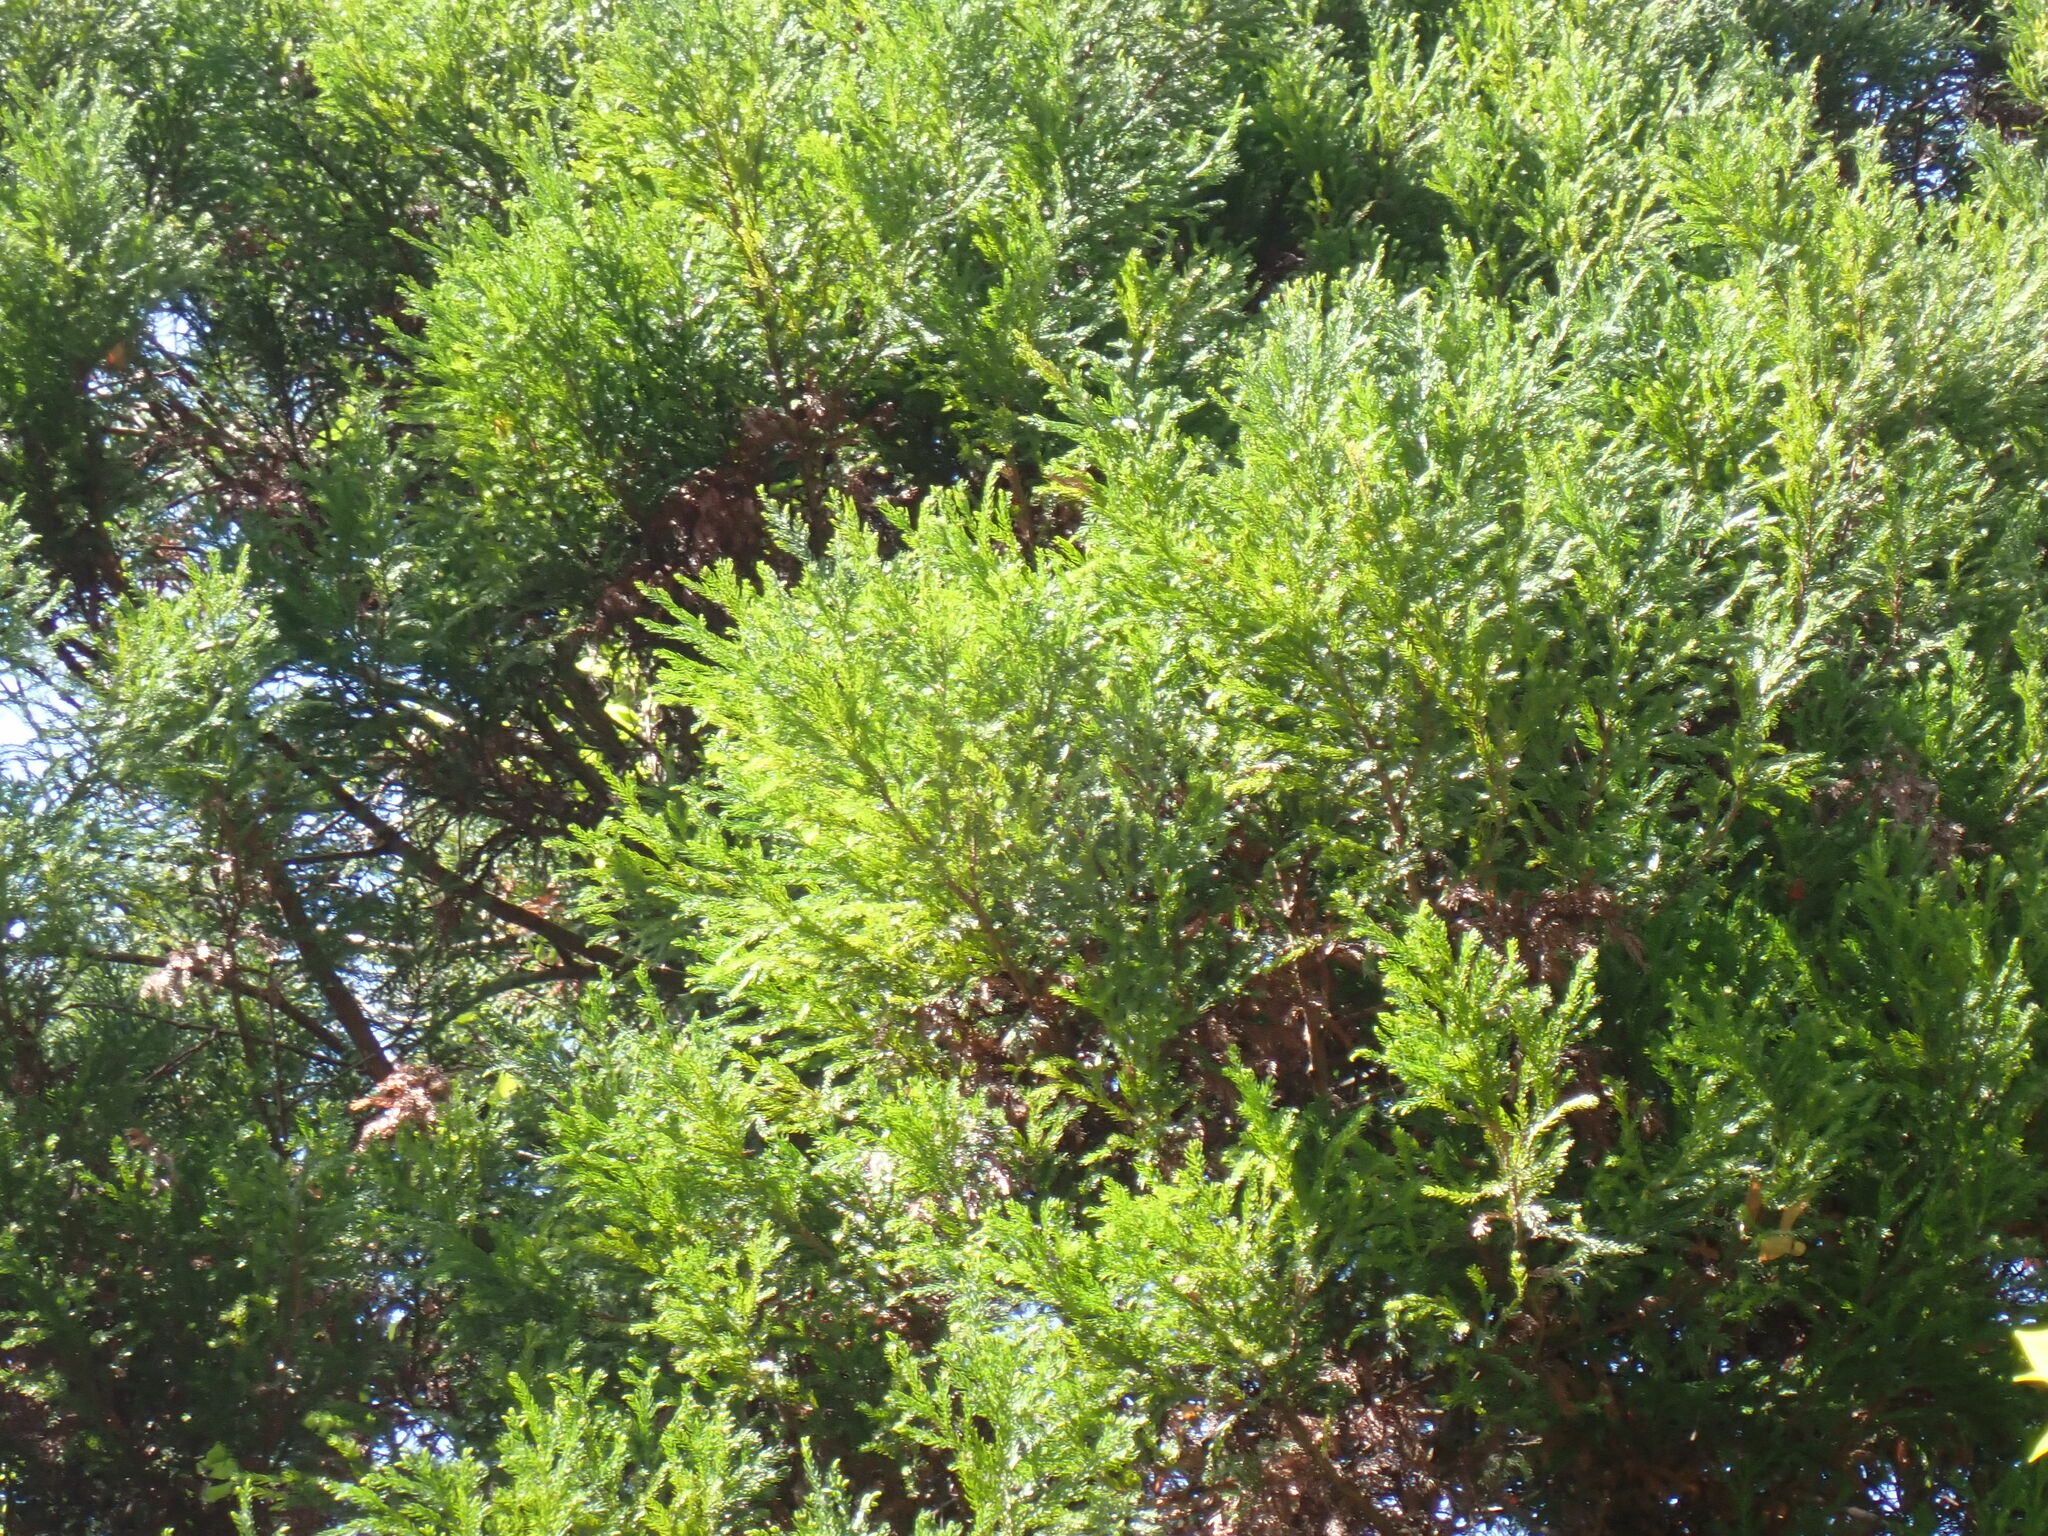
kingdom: Plantae
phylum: Tracheophyta
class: Pinopsida
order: Pinales
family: Cupressaceae
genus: Cryptomeria
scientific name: Cryptomeria japonica
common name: Japanese cedar
